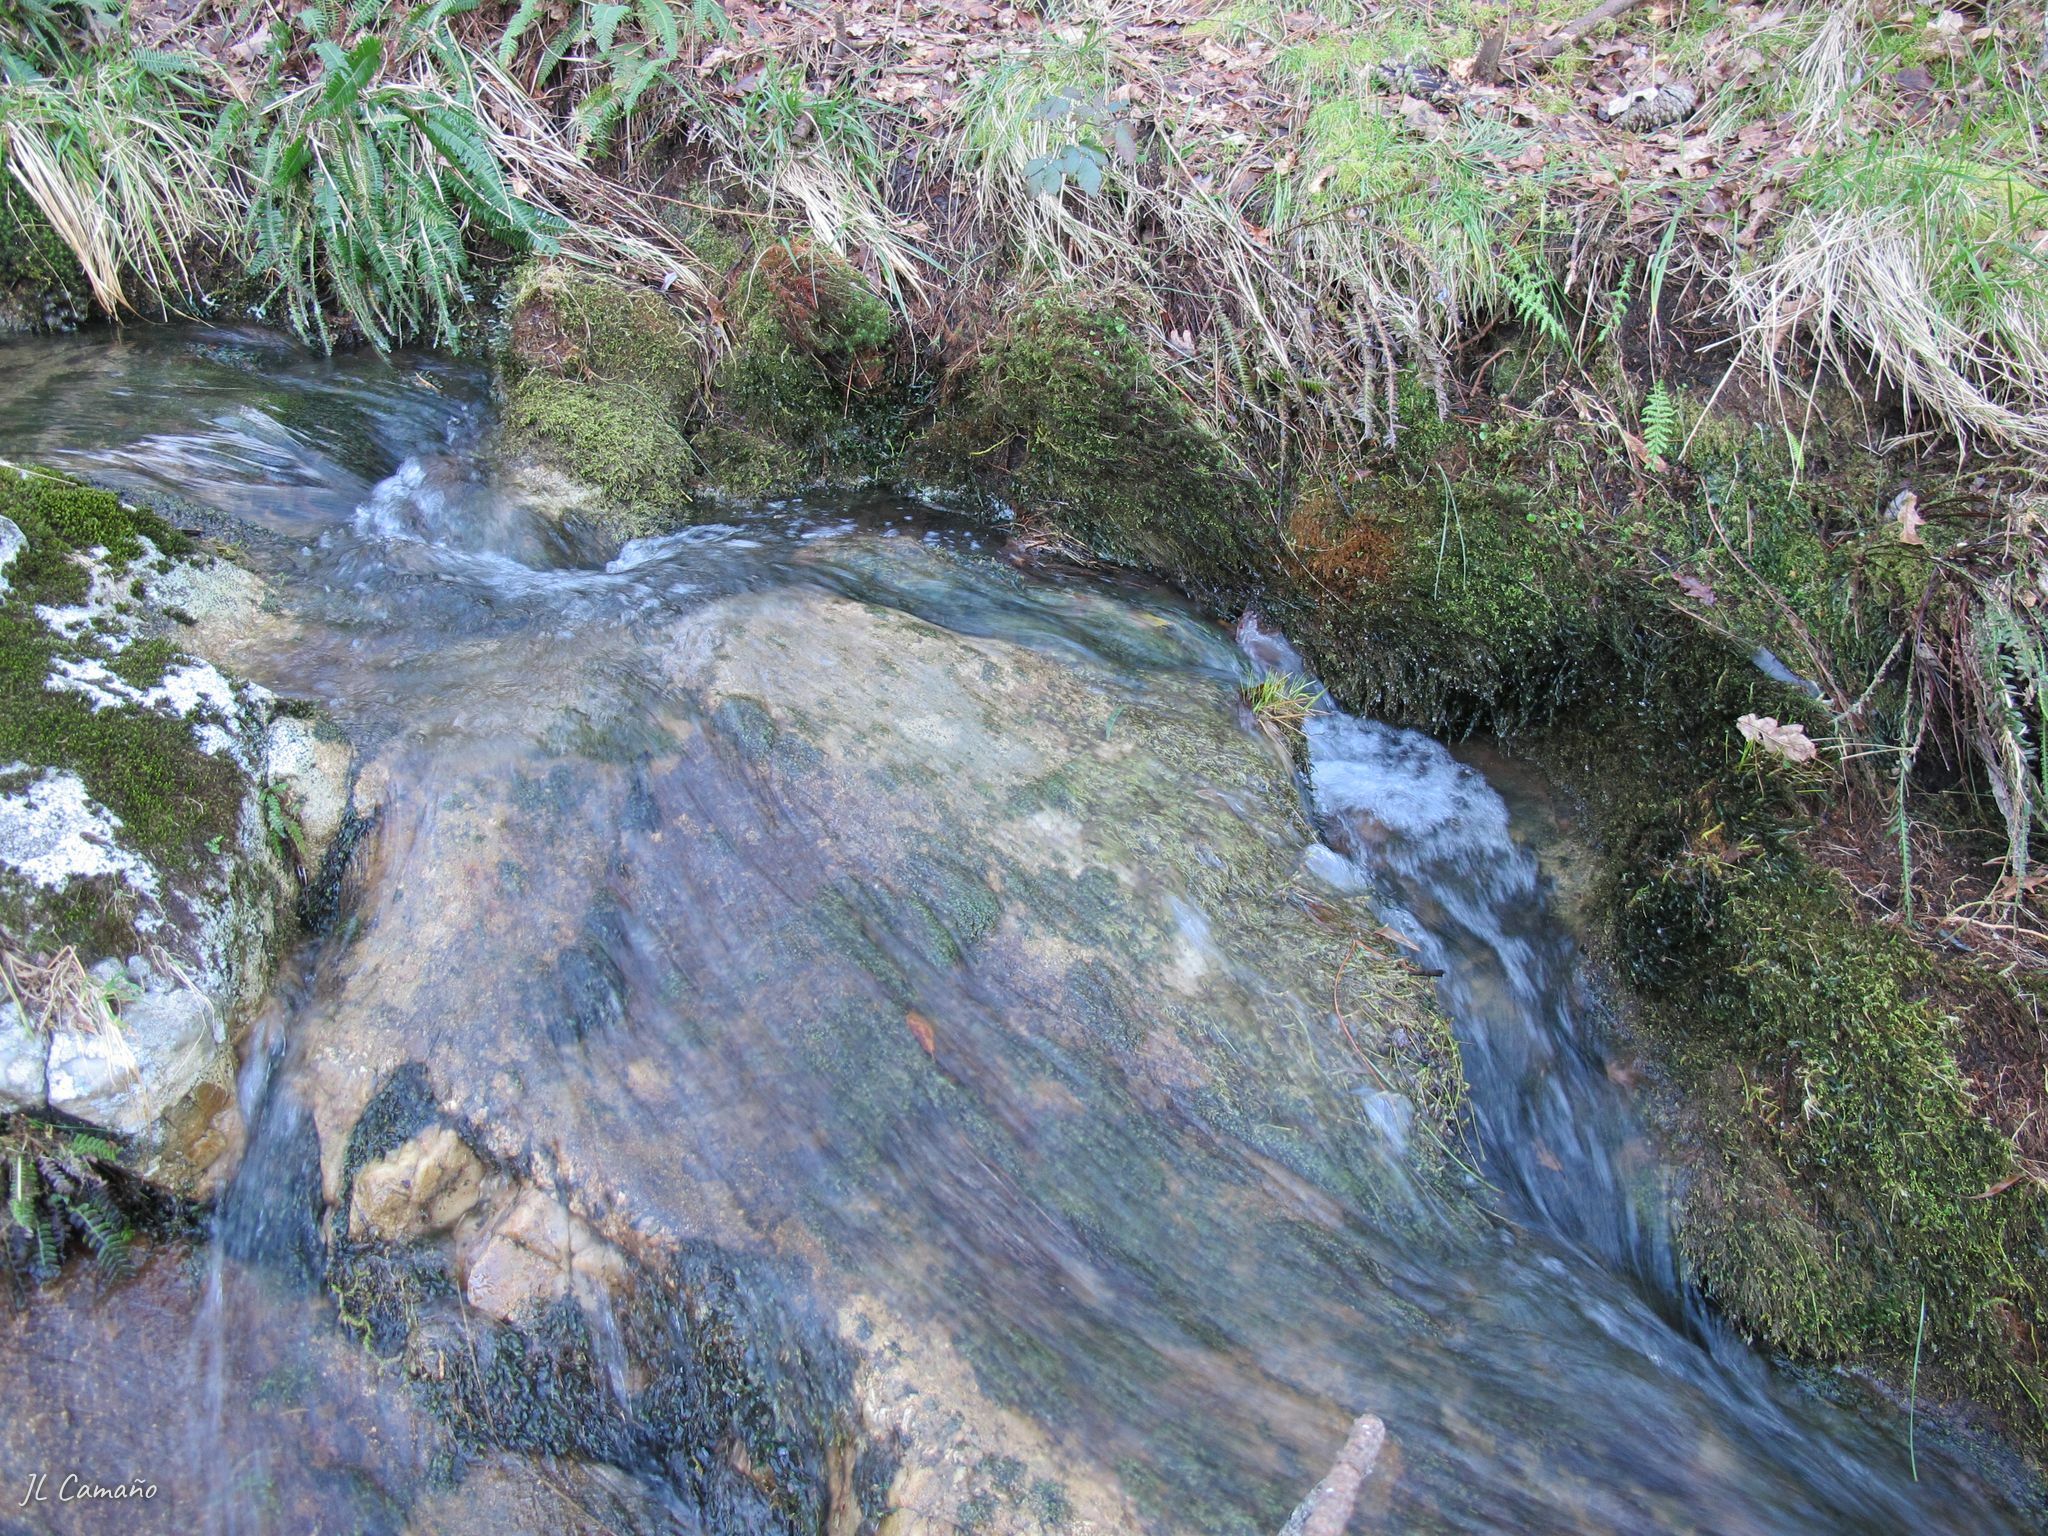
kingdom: Plantae
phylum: Bryophyta
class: Bryopsida
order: Dicranales
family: Fissidentaceae
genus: Fissidens
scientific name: Fissidens polyphyllus
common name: Many-leaved pocket-moss
